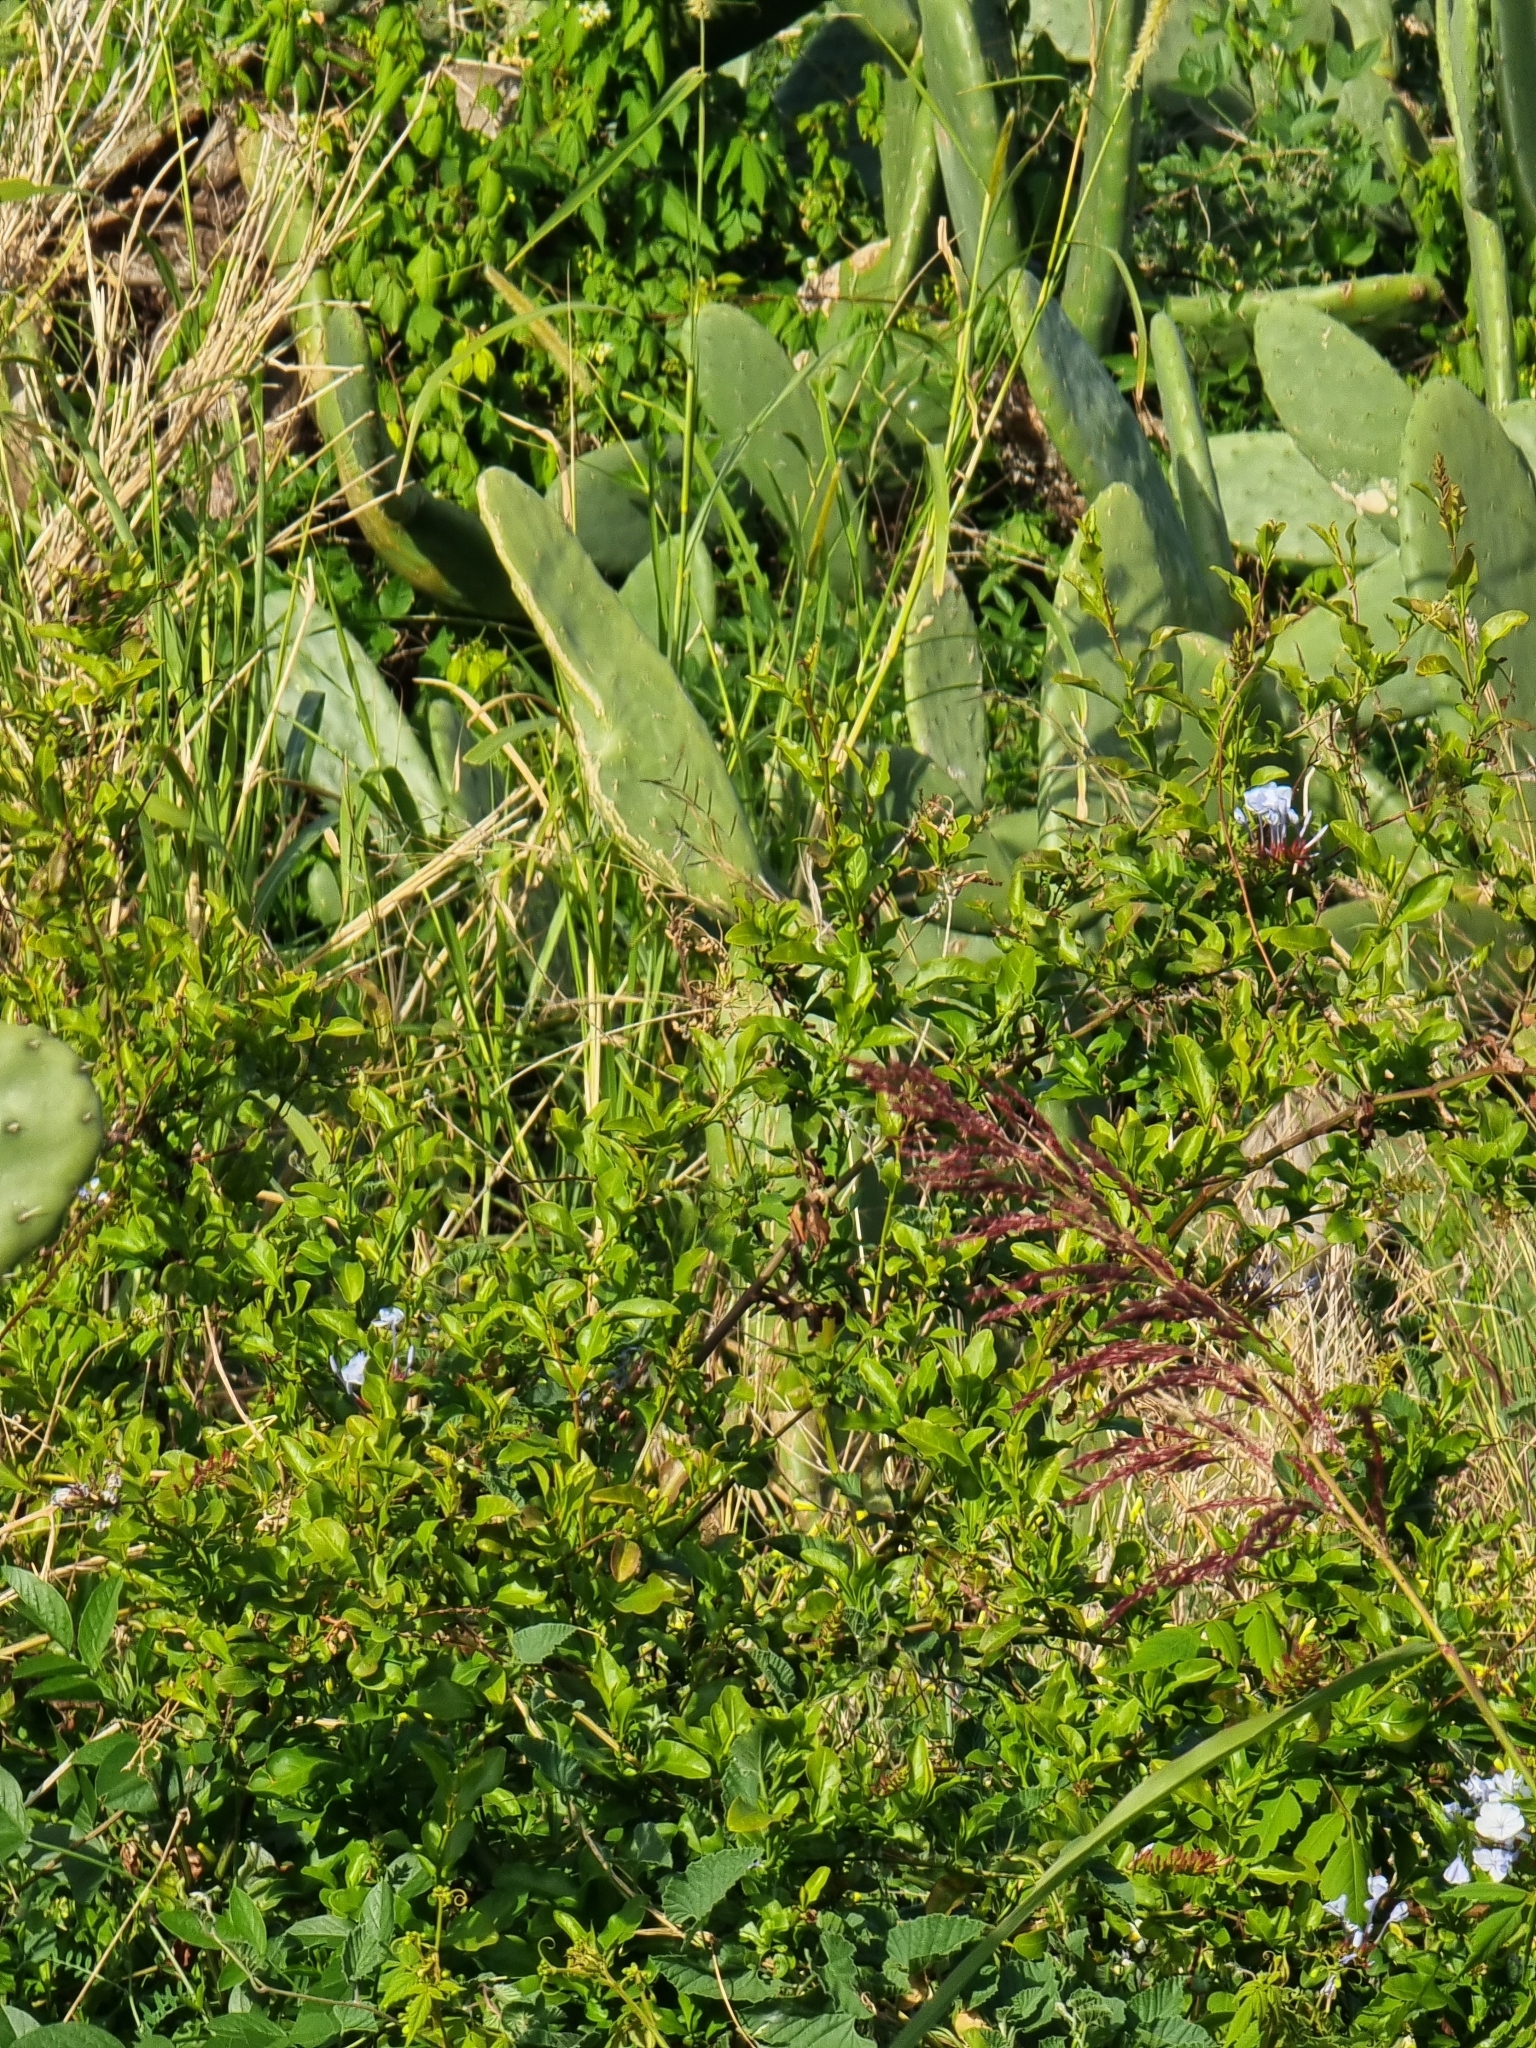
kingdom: Plantae
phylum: Tracheophyta
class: Magnoliopsida
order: Caryophyllales
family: Plumbaginaceae
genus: Plumbago
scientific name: Plumbago auriculata
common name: Cape leadwort
